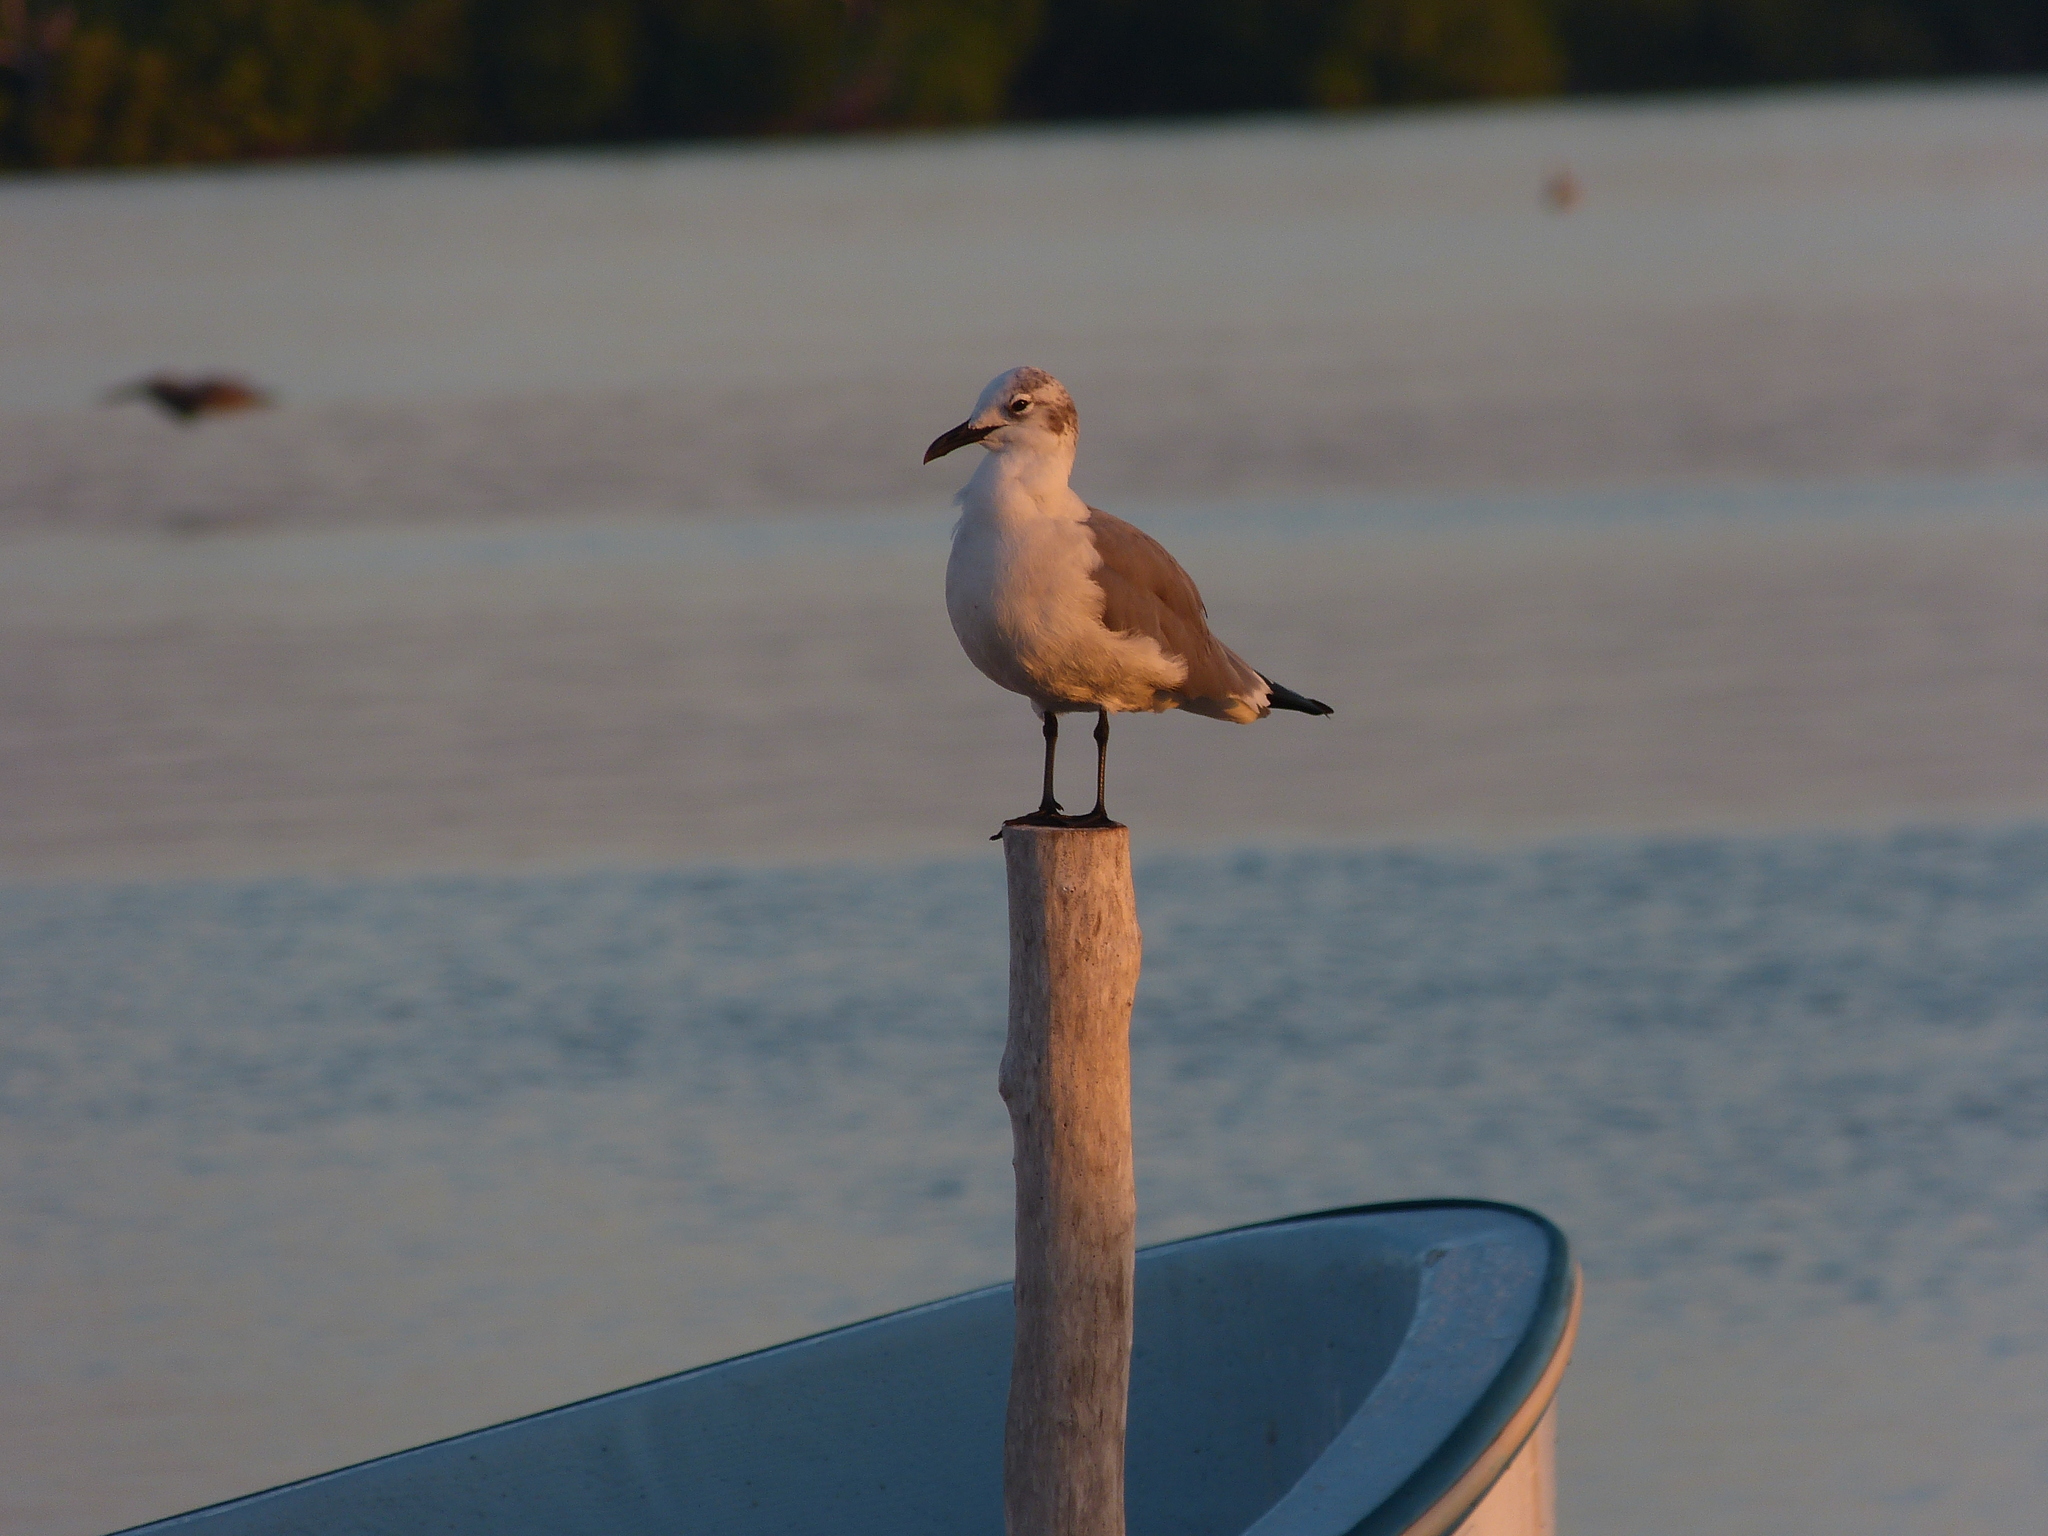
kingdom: Animalia
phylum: Chordata
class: Aves
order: Charadriiformes
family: Laridae
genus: Leucophaeus
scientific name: Leucophaeus atricilla
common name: Laughing gull
